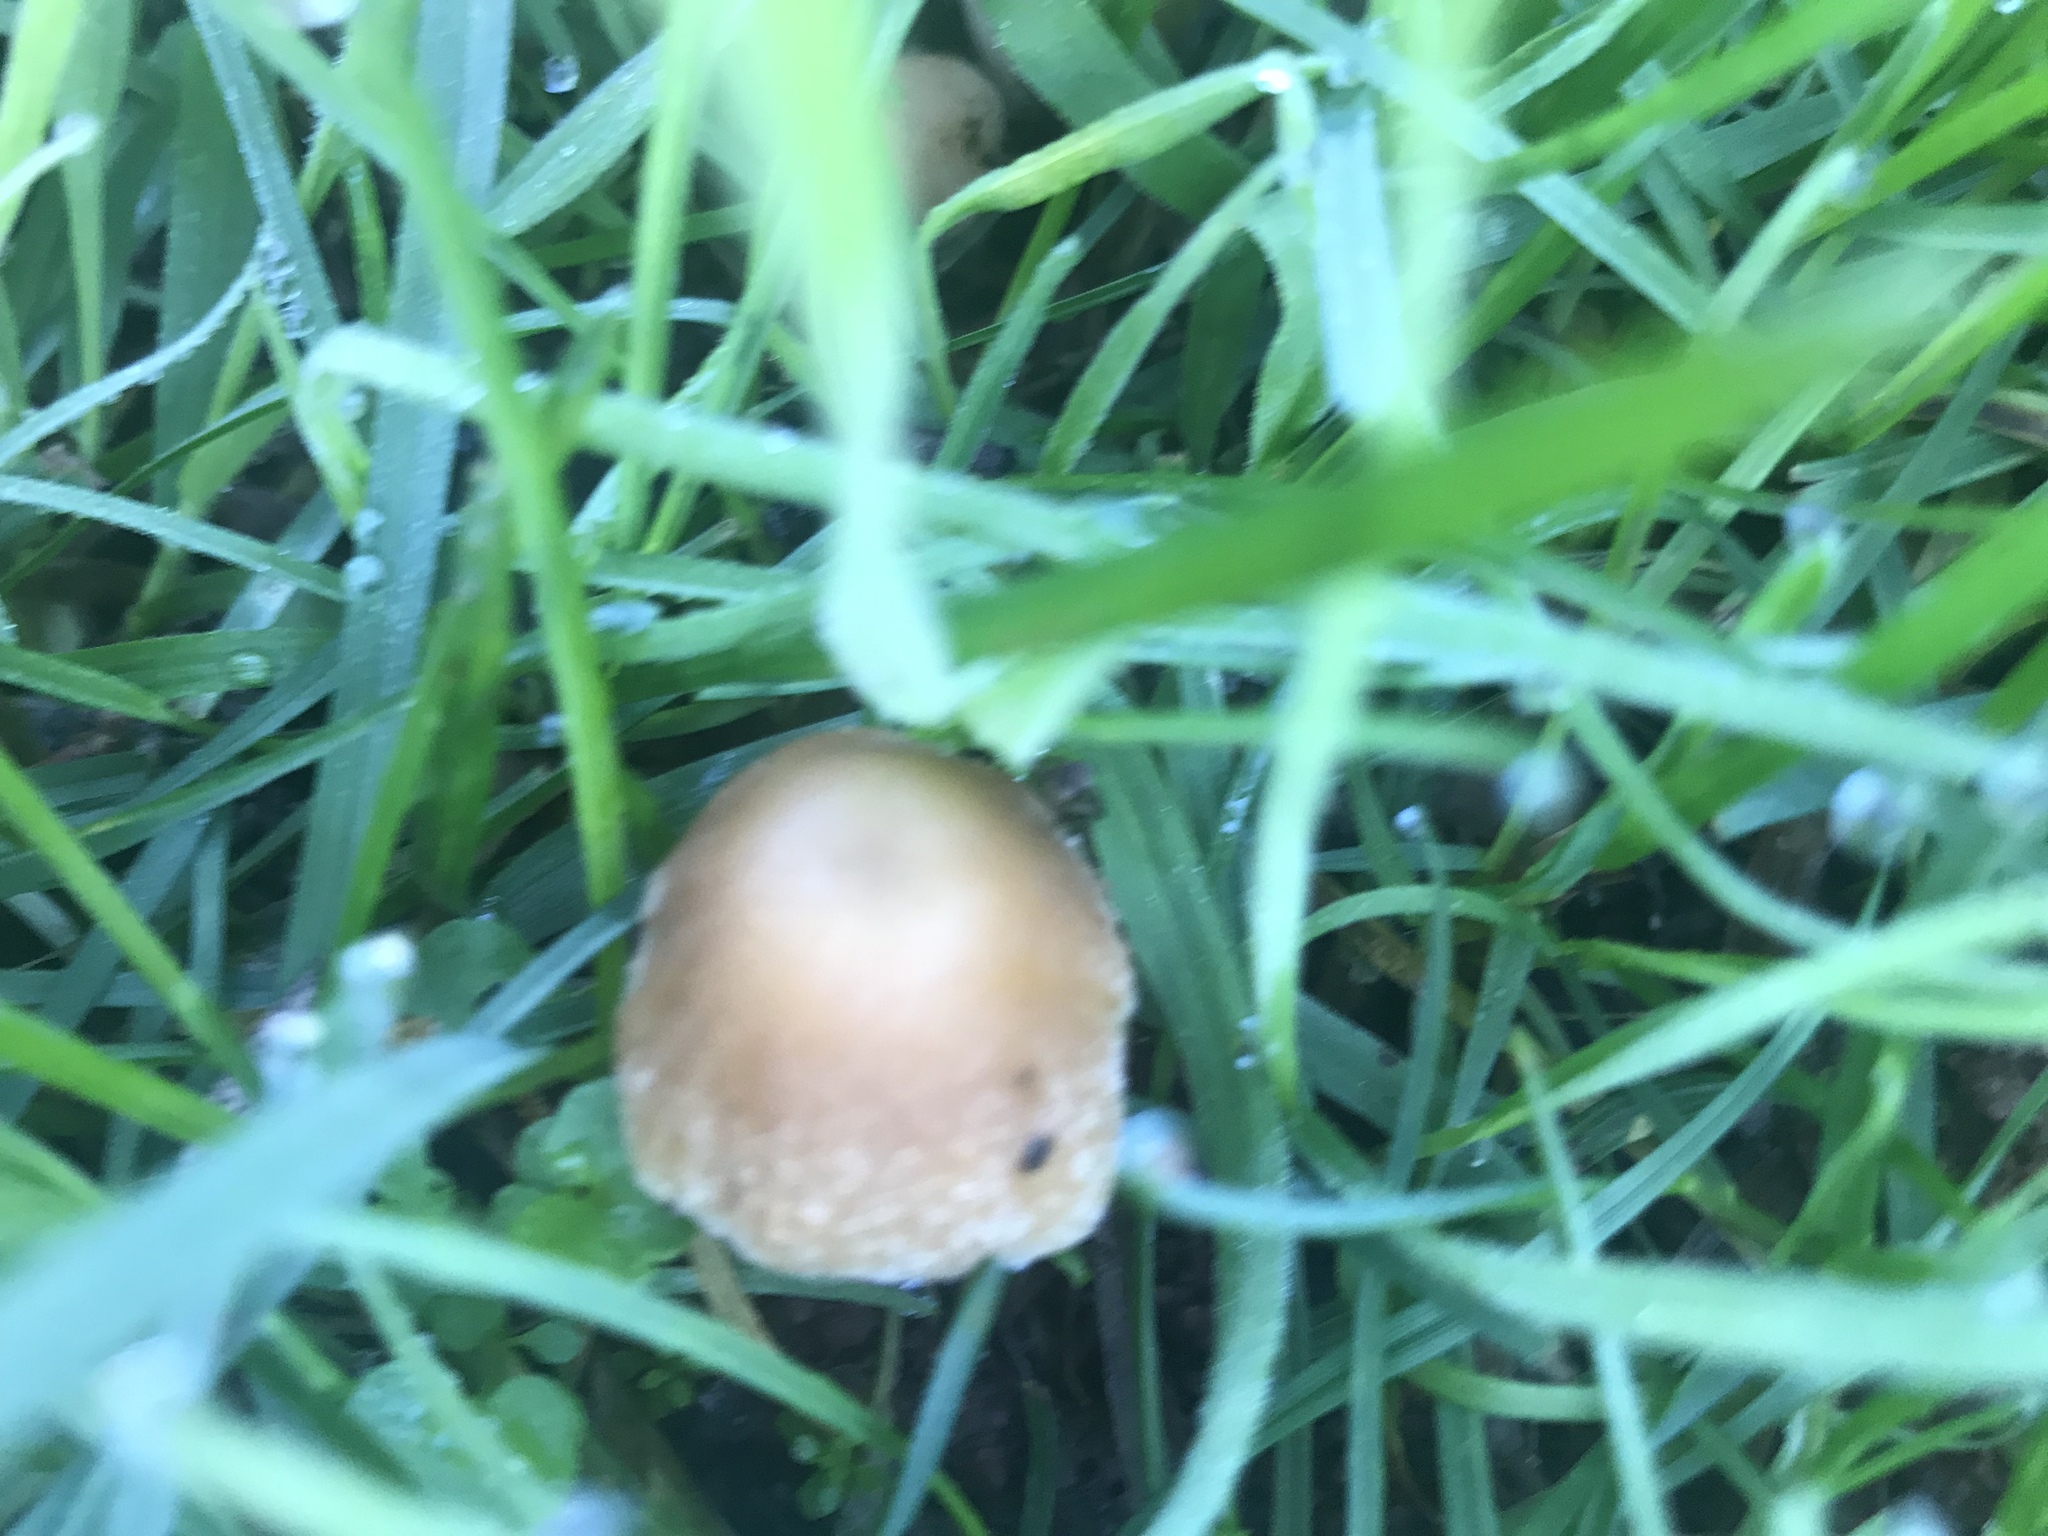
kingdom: Fungi
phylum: Basidiomycota
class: Agaricomycetes
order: Agaricales
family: Psathyrellaceae
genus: Candolleomyces
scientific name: Candolleomyces candolleanus
